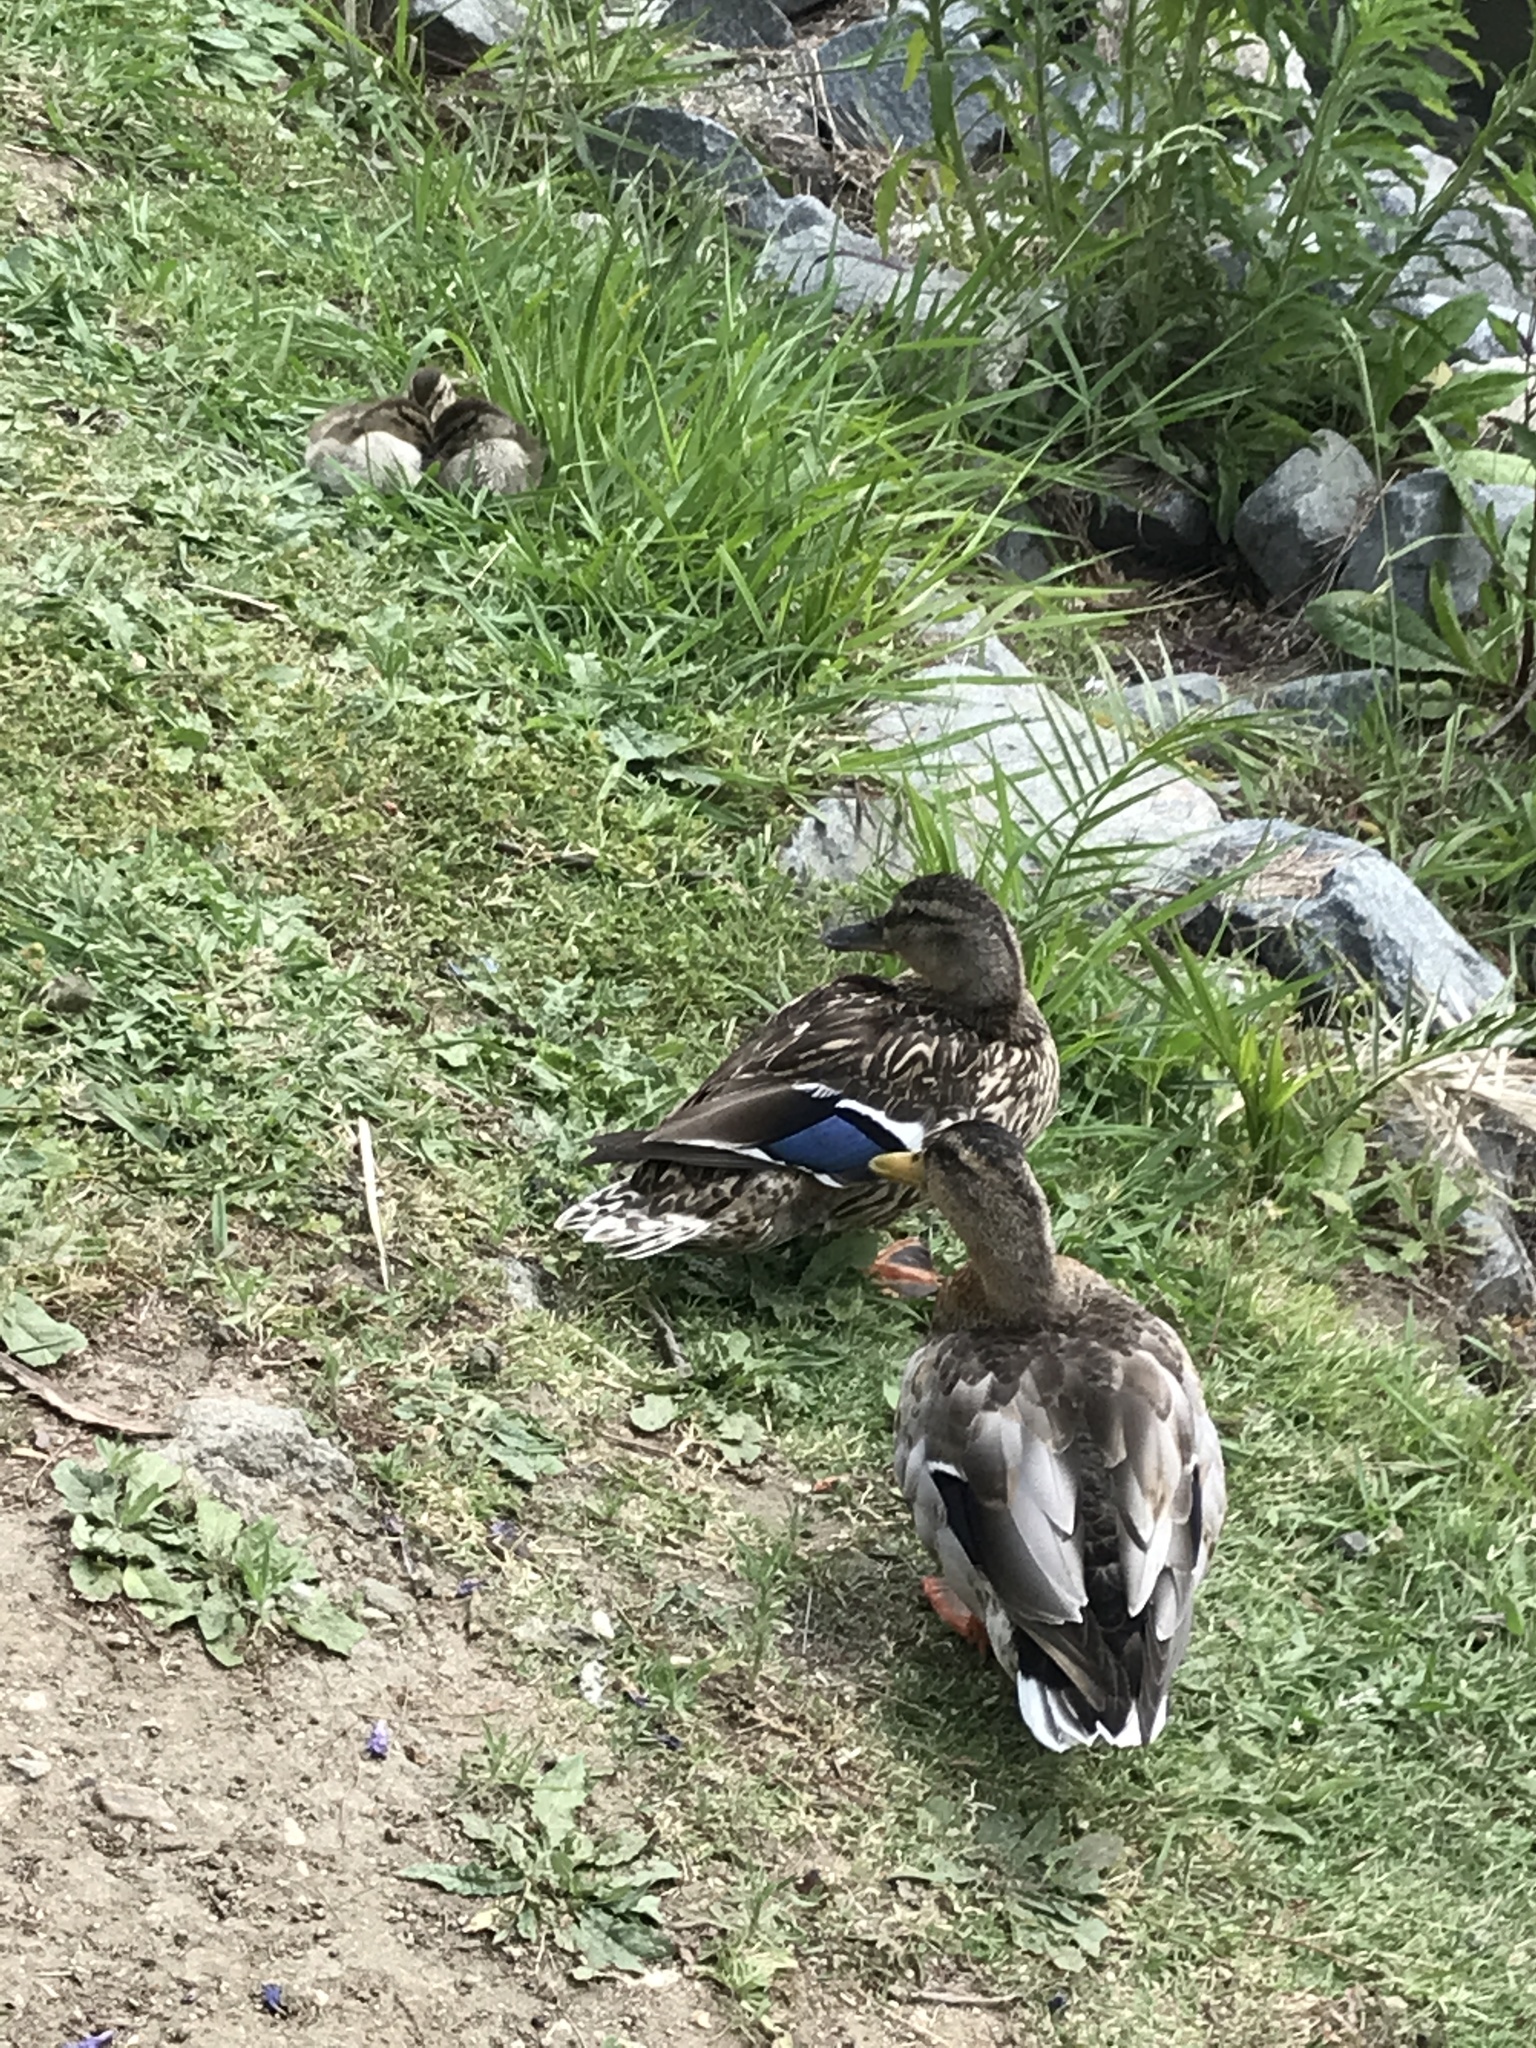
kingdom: Animalia
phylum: Chordata
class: Aves
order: Anseriformes
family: Anatidae
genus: Anas
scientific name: Anas platyrhynchos
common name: Mallard
